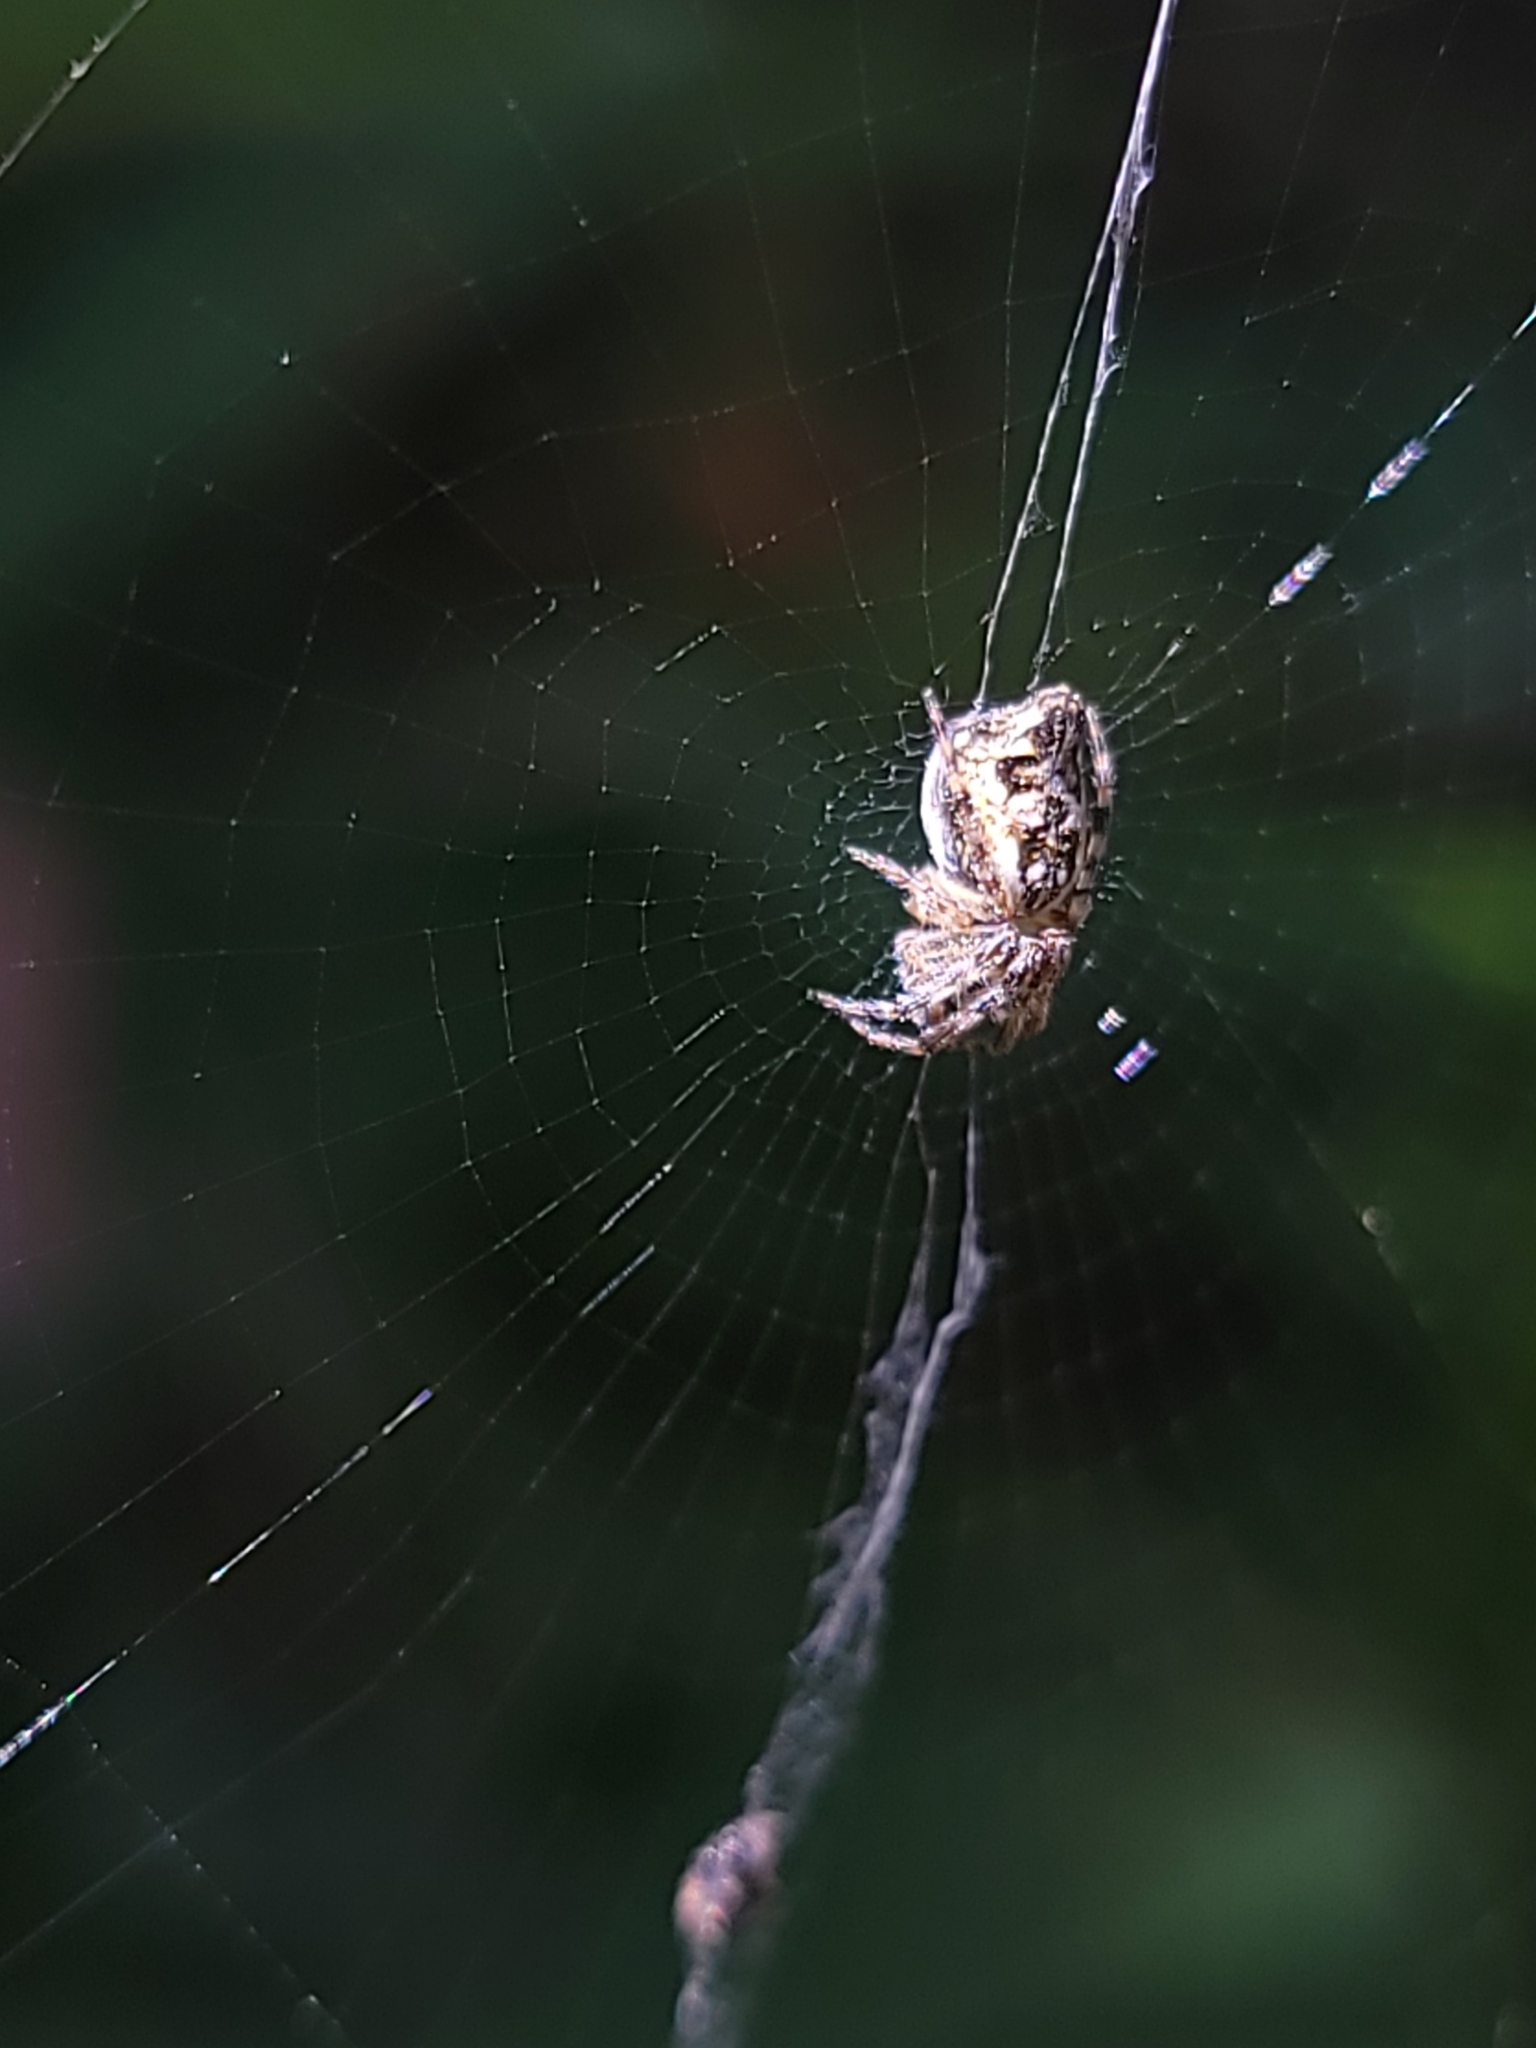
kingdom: Animalia
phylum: Arthropoda
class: Arachnida
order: Araneae
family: Araneidae
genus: Cyclosa
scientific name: Cyclosa conica
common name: Conical trashline orbweaver
